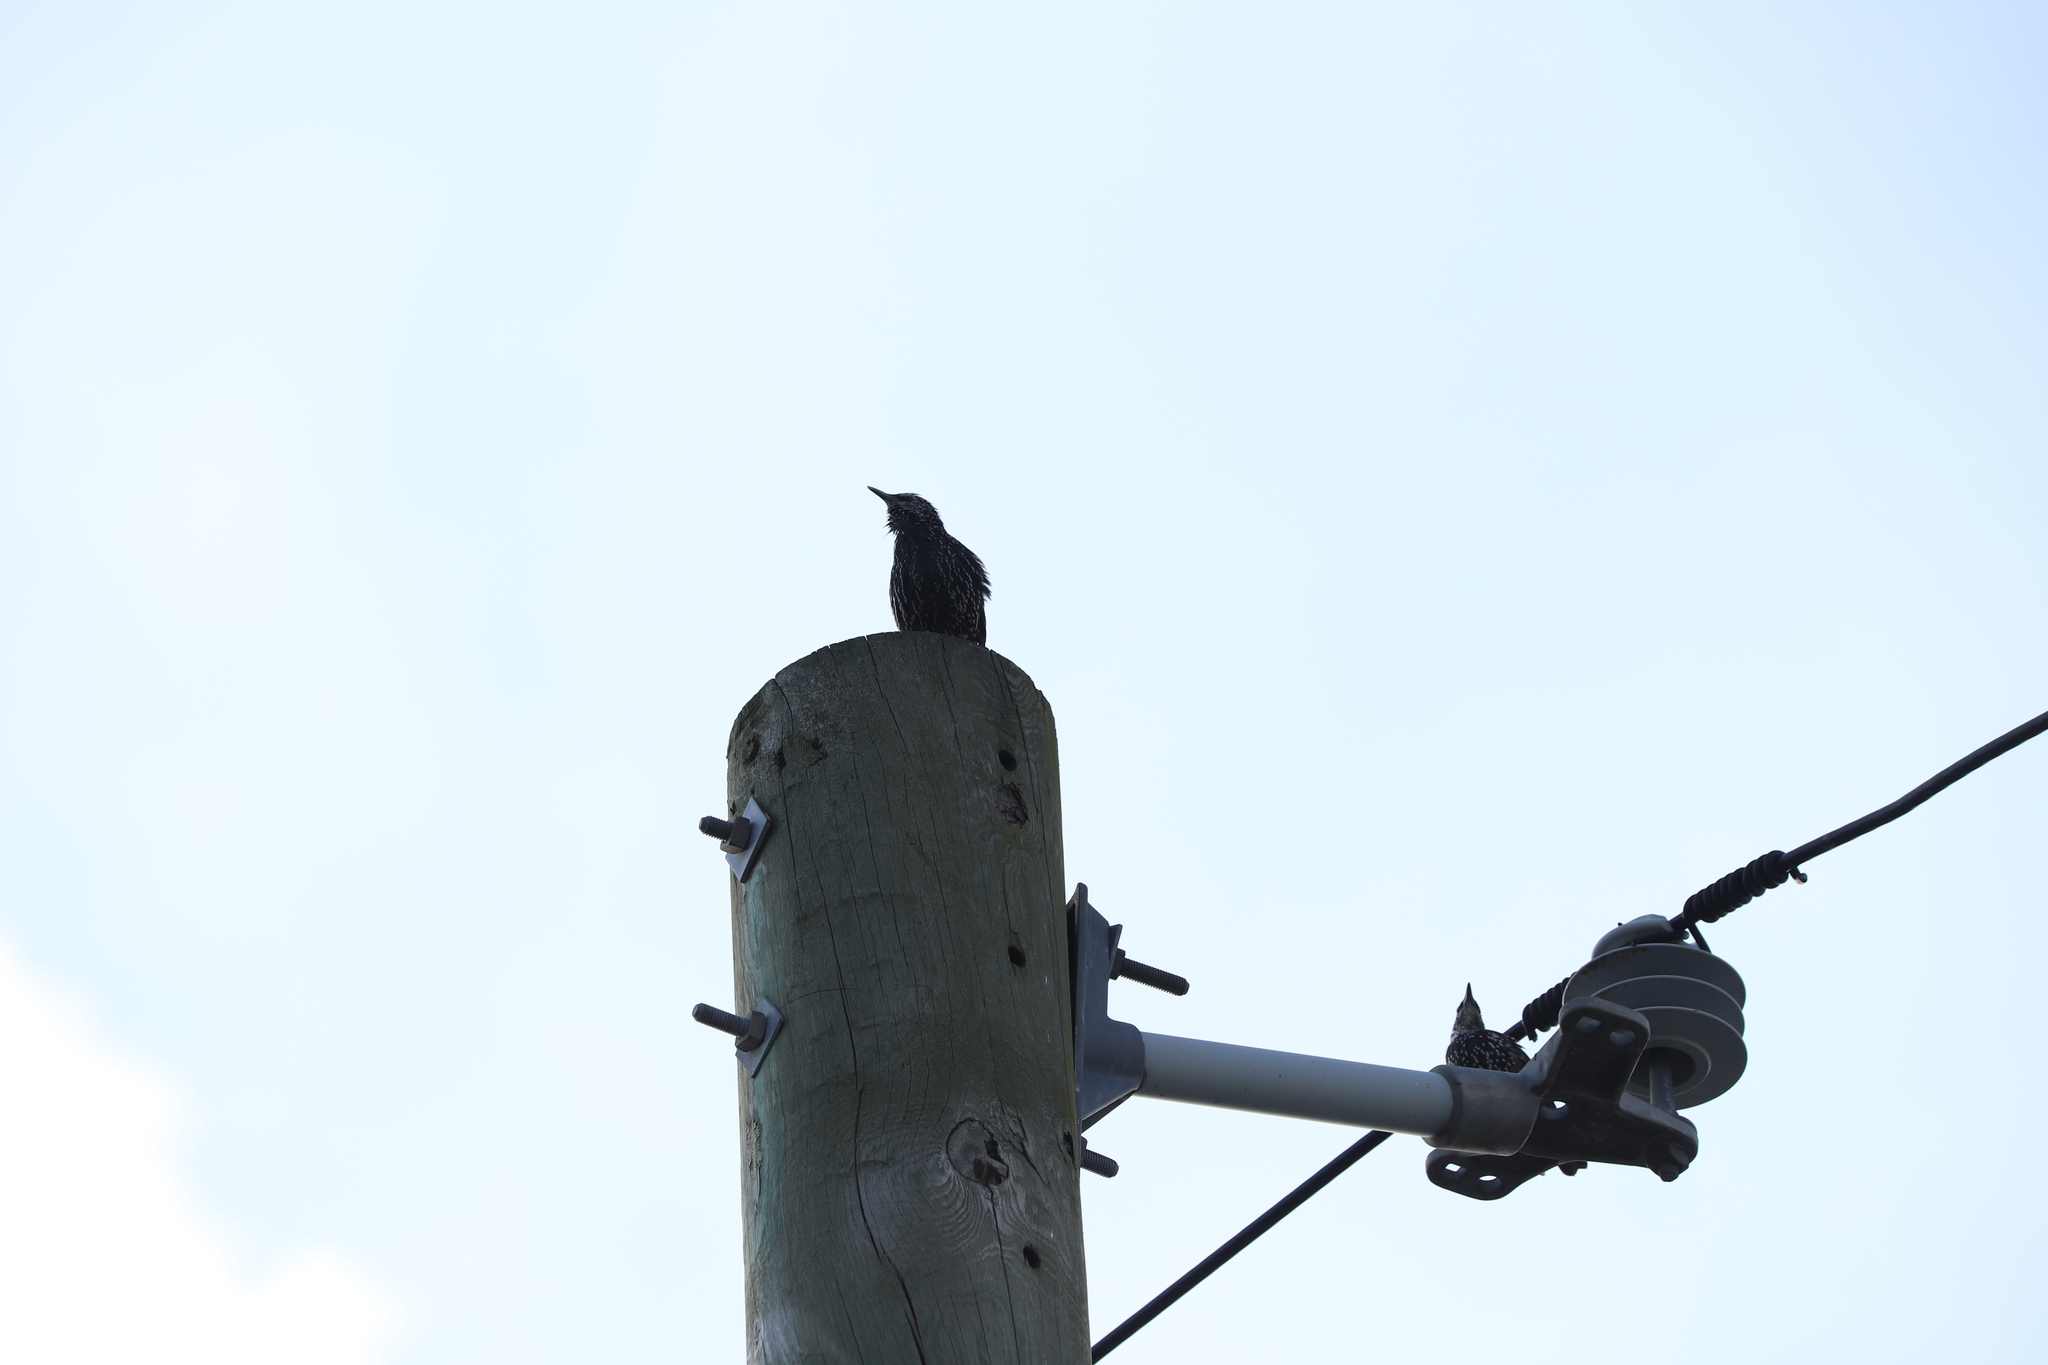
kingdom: Animalia
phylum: Chordata
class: Aves
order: Passeriformes
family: Sturnidae
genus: Sturnus
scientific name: Sturnus vulgaris
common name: Common starling
